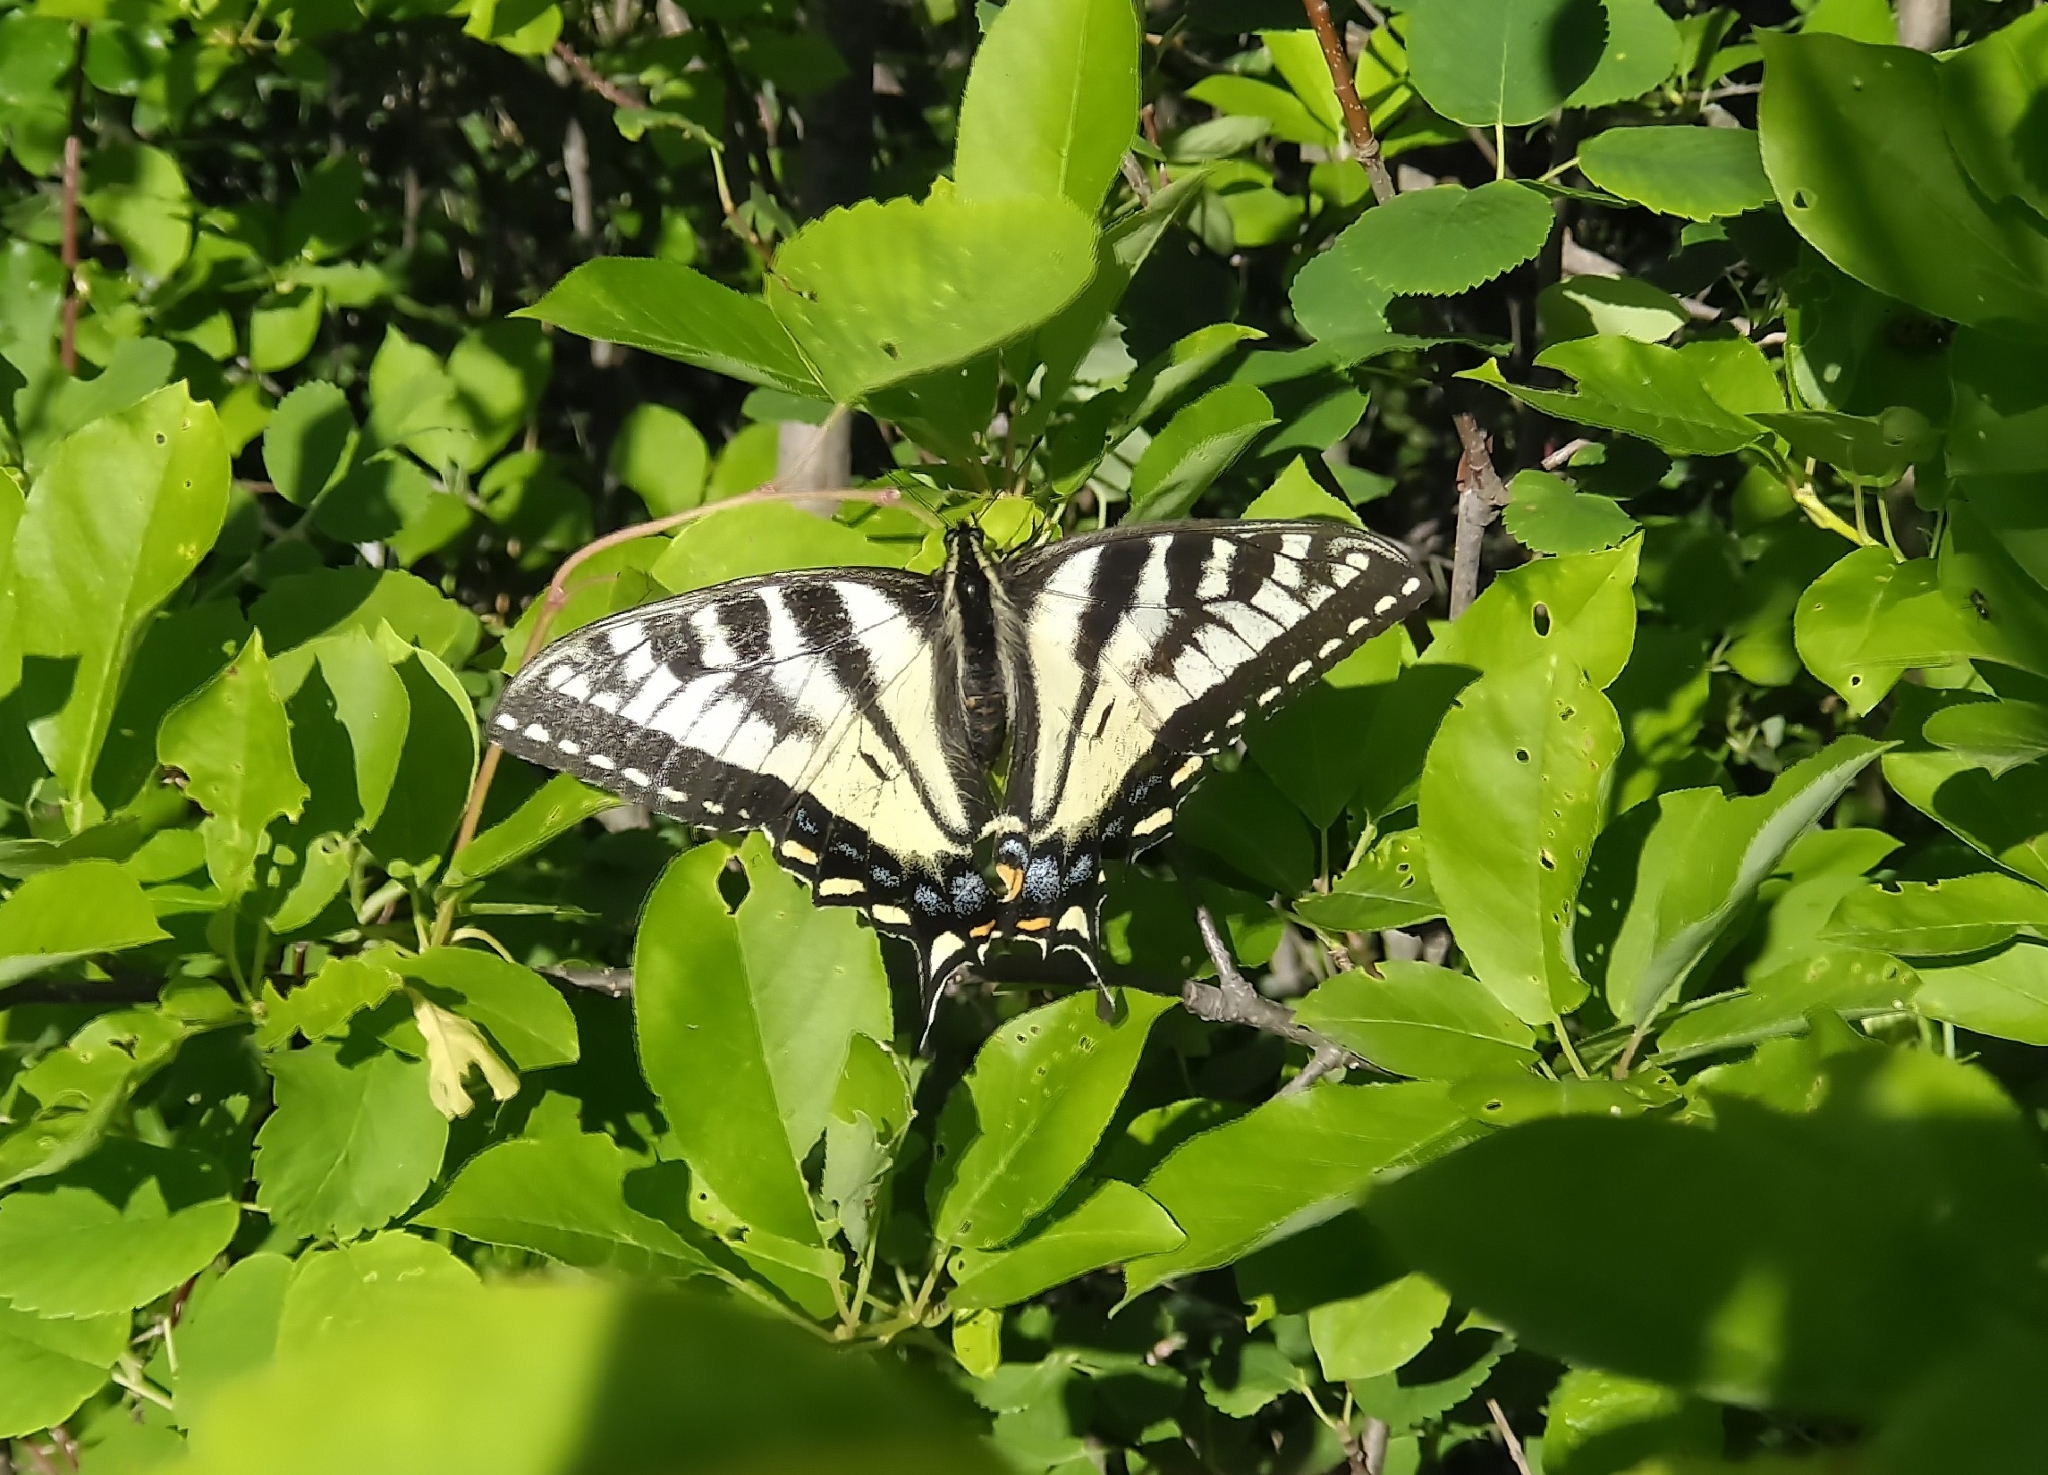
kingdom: Animalia
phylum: Arthropoda
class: Insecta
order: Lepidoptera
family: Papilionidae
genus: Papilio
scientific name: Papilio canadensis
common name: Canadian tiger swallowtail
